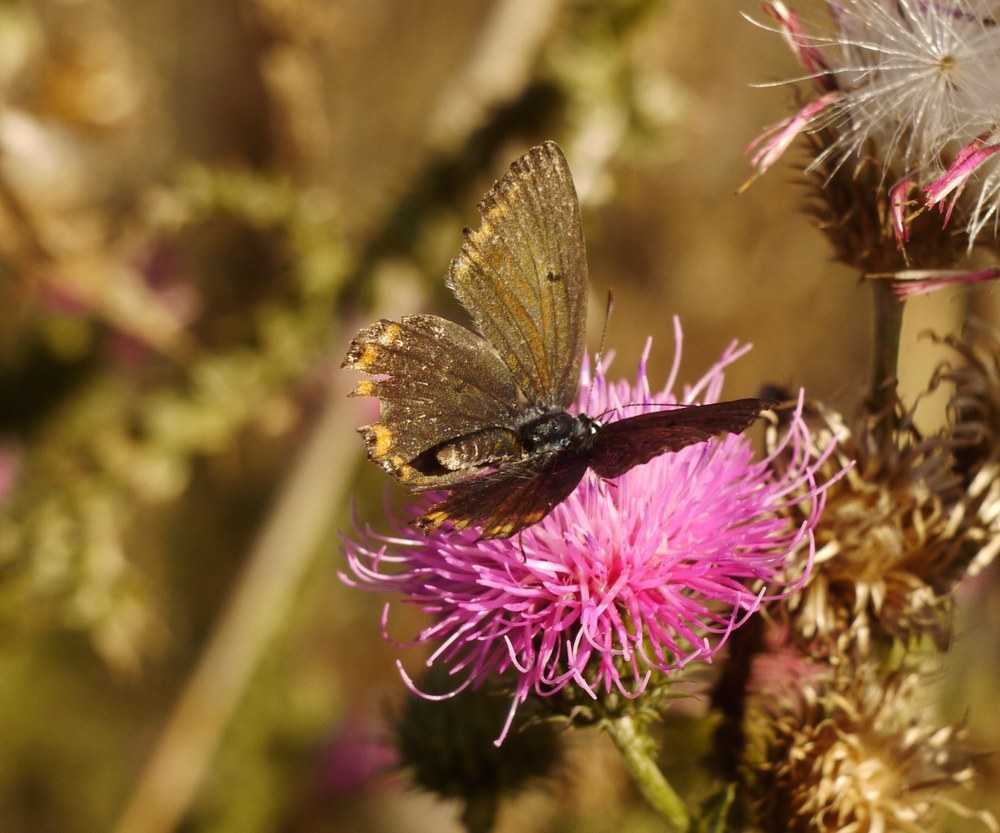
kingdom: Animalia
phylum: Arthropoda
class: Insecta
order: Lepidoptera
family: Lycaenidae
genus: Lysandra
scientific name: Lysandra bellargus
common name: Adonis blue
